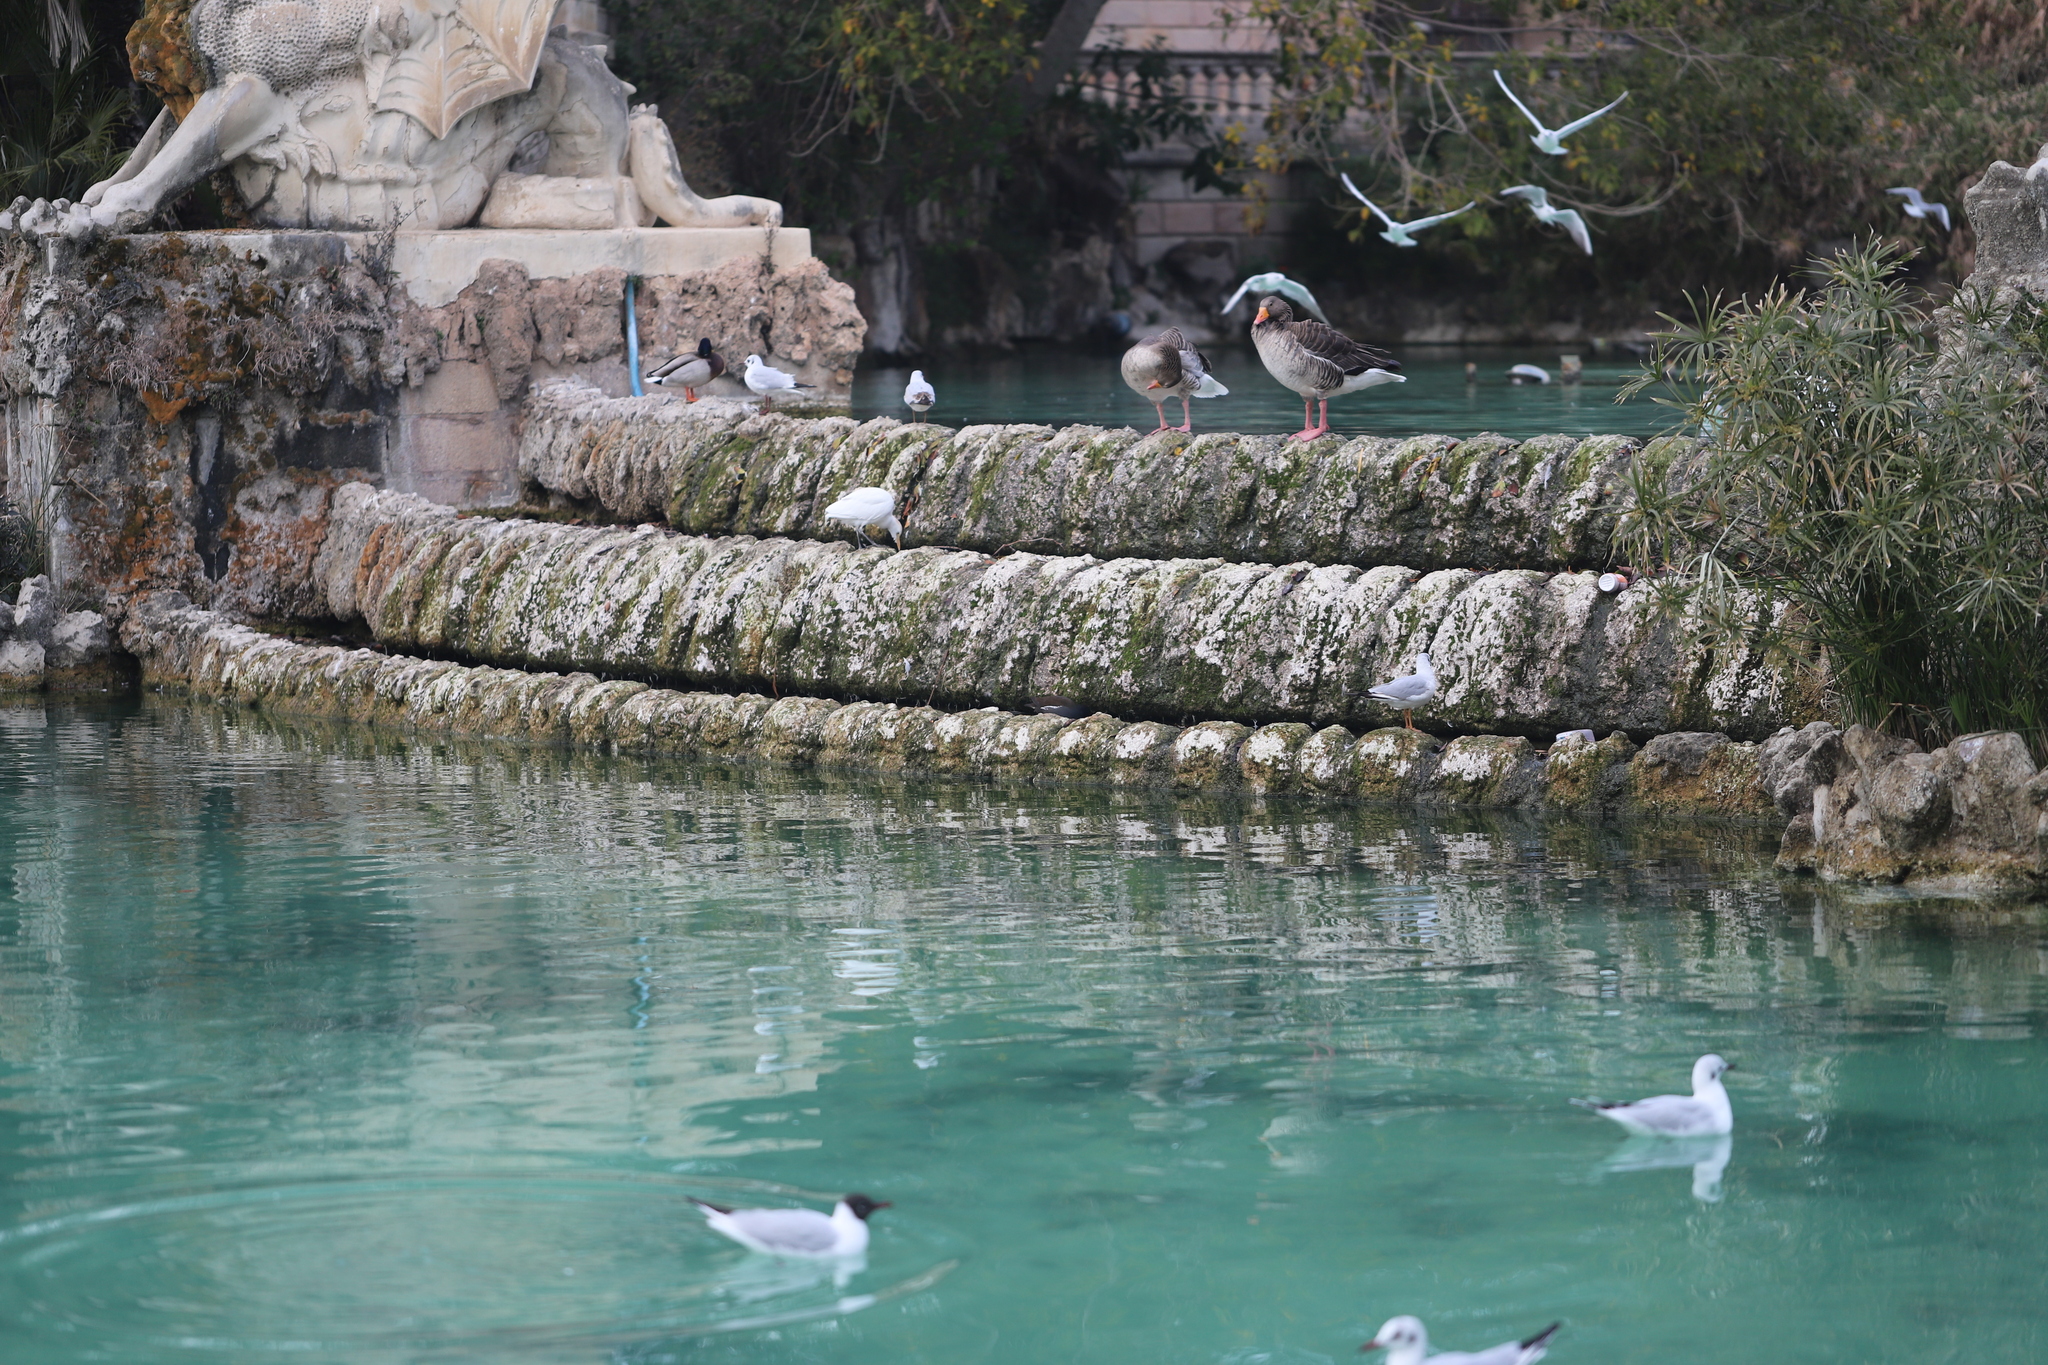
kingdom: Animalia
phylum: Chordata
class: Aves
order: Anseriformes
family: Anatidae
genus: Anser
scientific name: Anser anser
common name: Greylag goose
